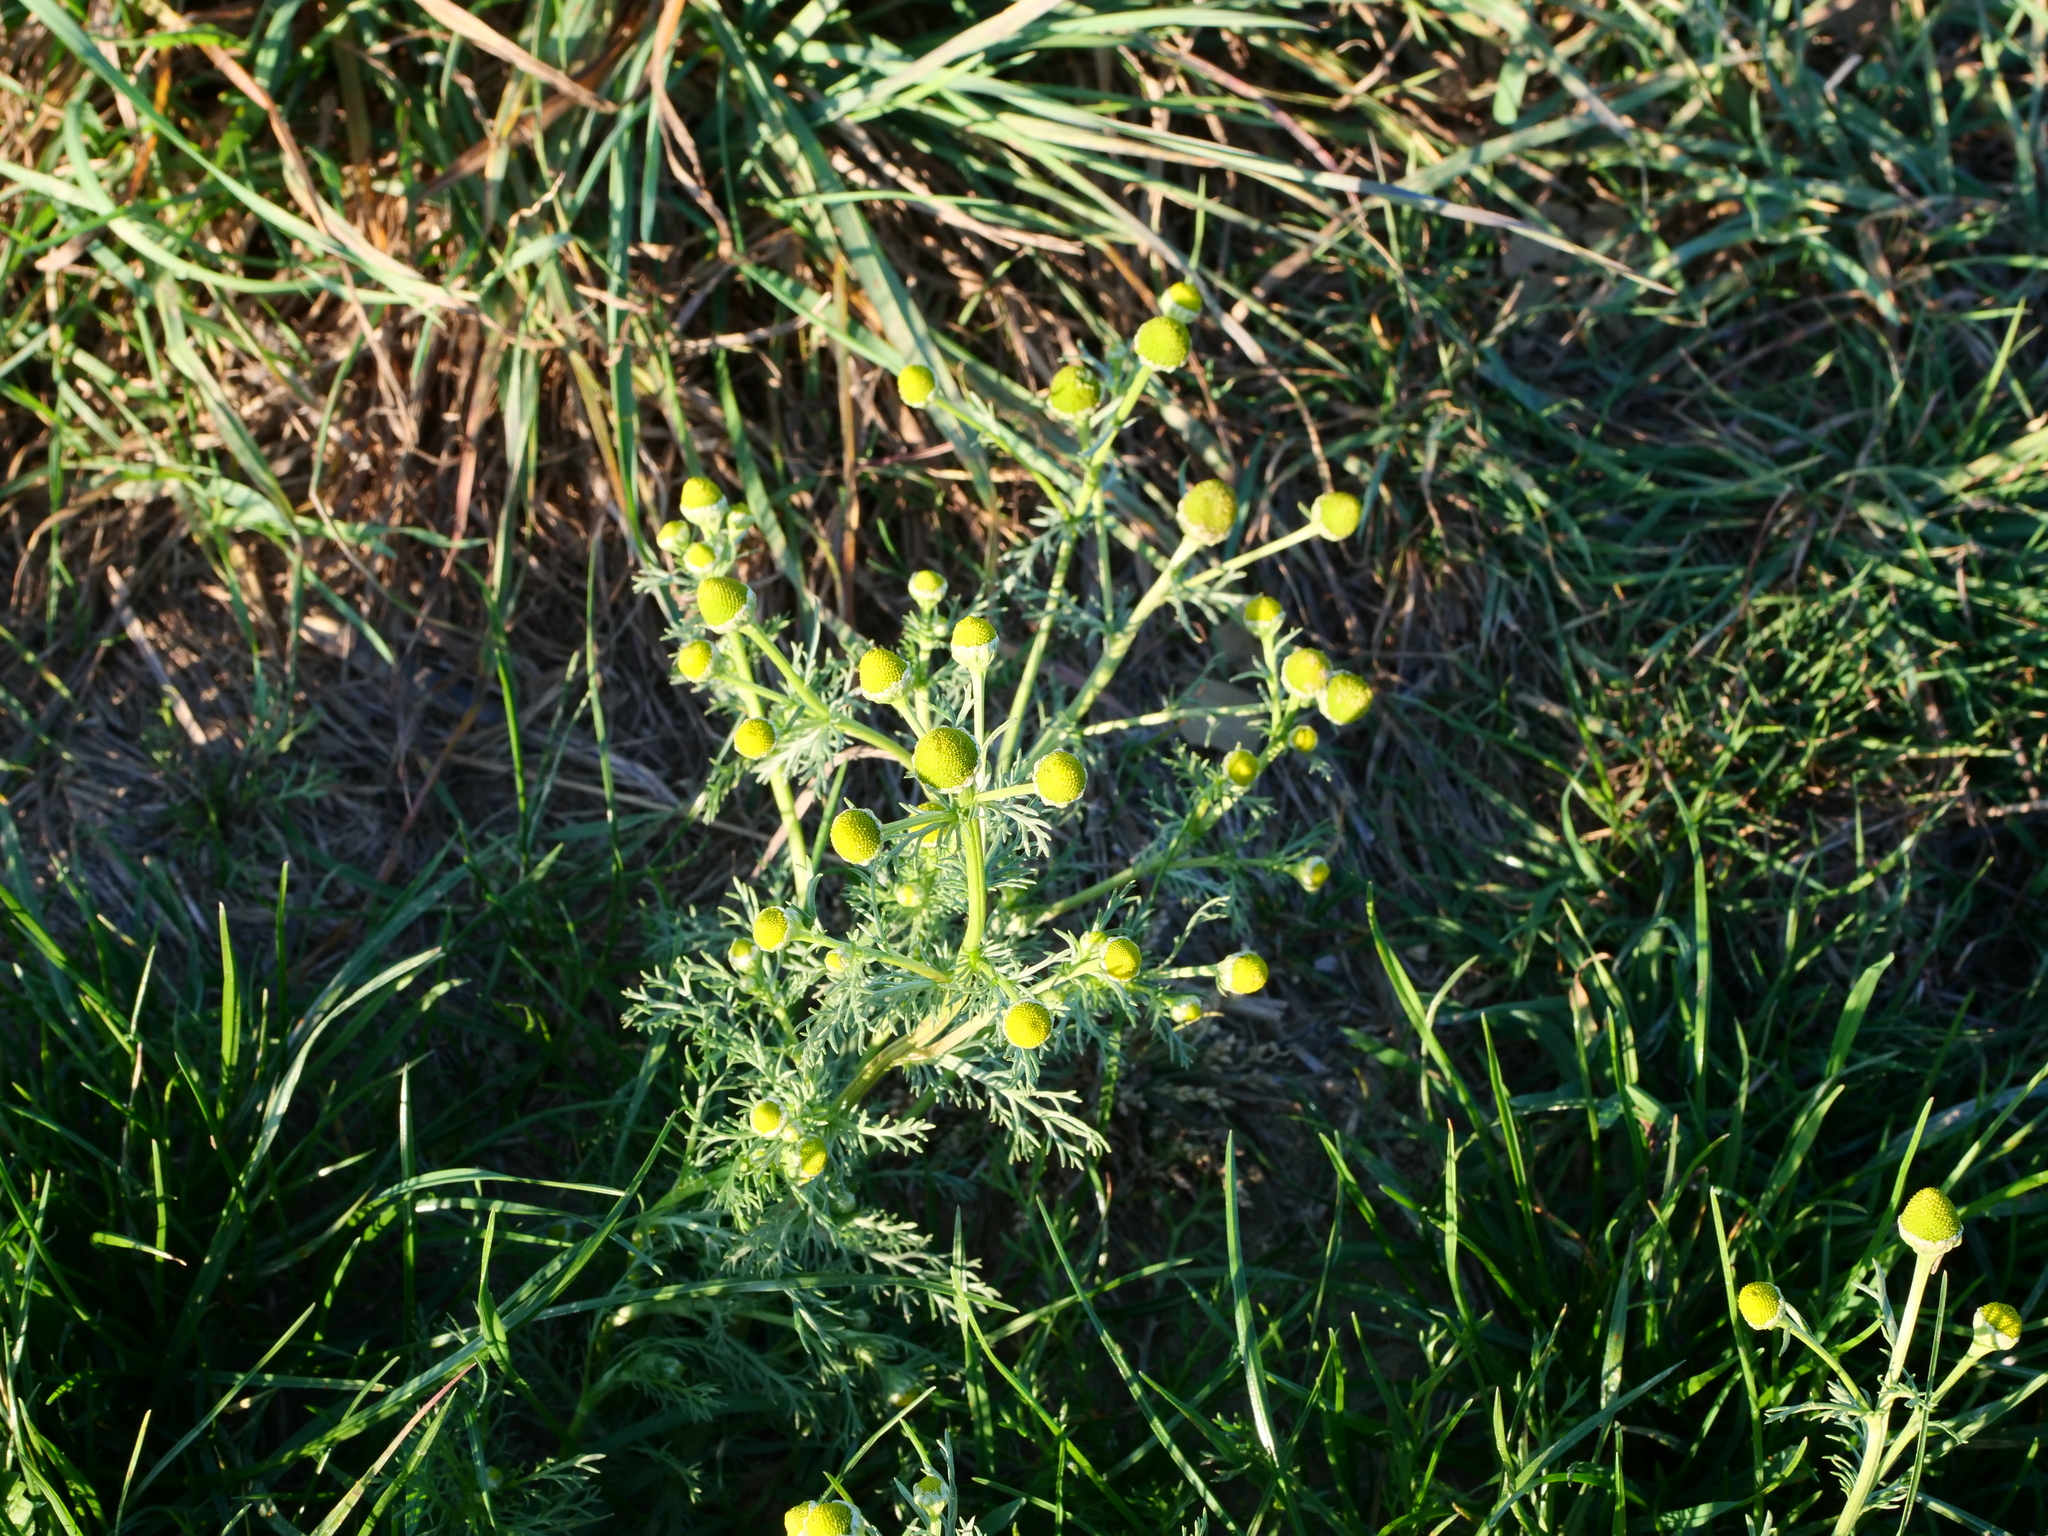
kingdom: Plantae
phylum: Tracheophyta
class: Magnoliopsida
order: Asterales
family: Asteraceae
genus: Matricaria
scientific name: Matricaria discoidea
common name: Disc mayweed
